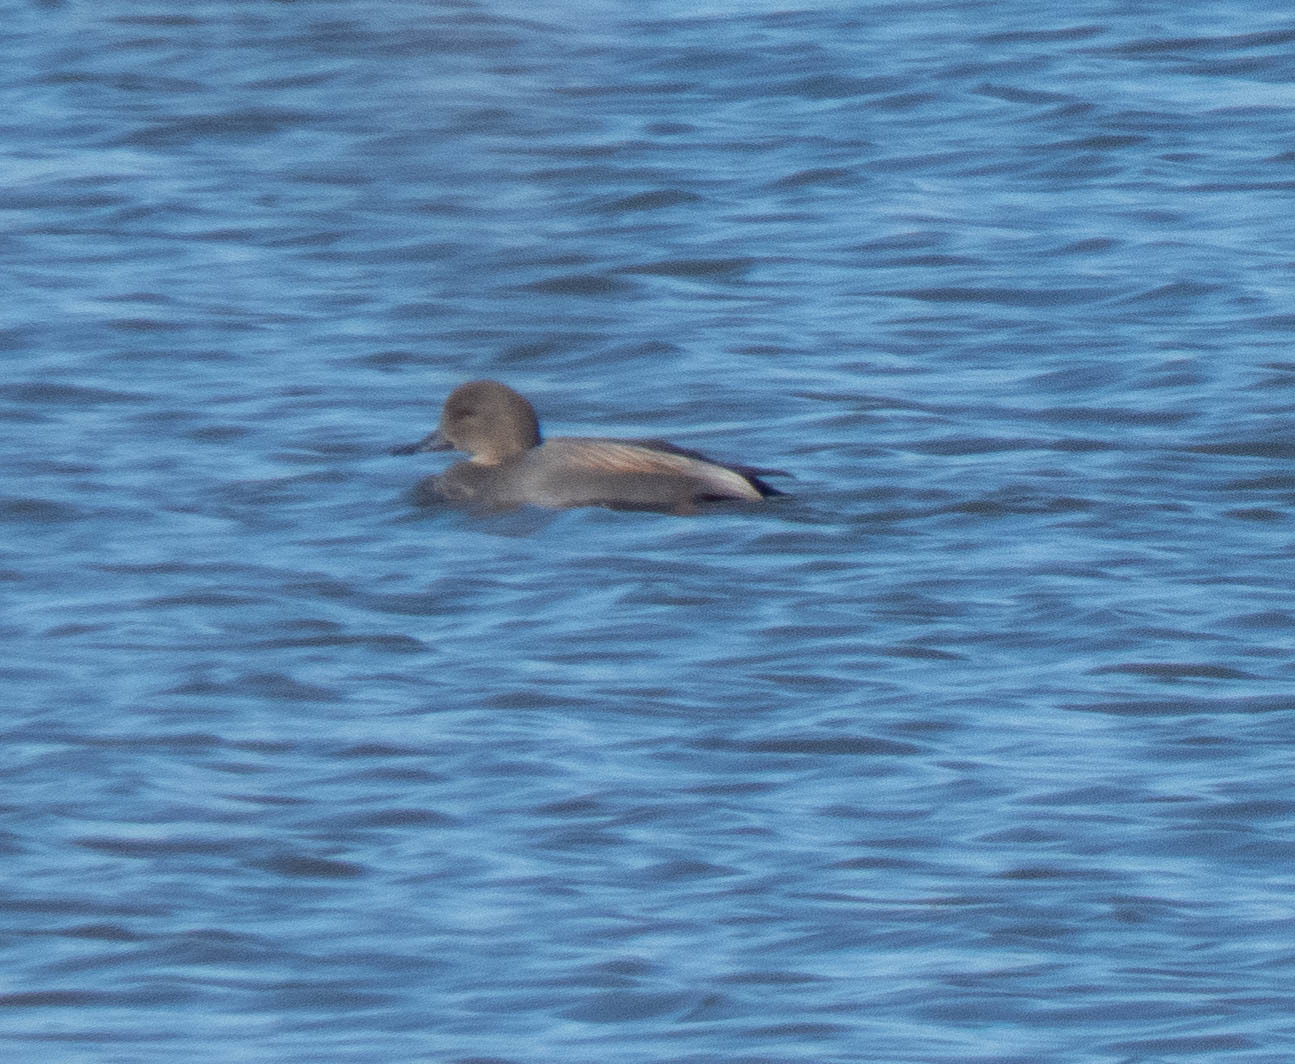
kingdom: Animalia
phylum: Chordata
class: Aves
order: Anseriformes
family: Anatidae
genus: Mareca
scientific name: Mareca strepera
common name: Gadwall
